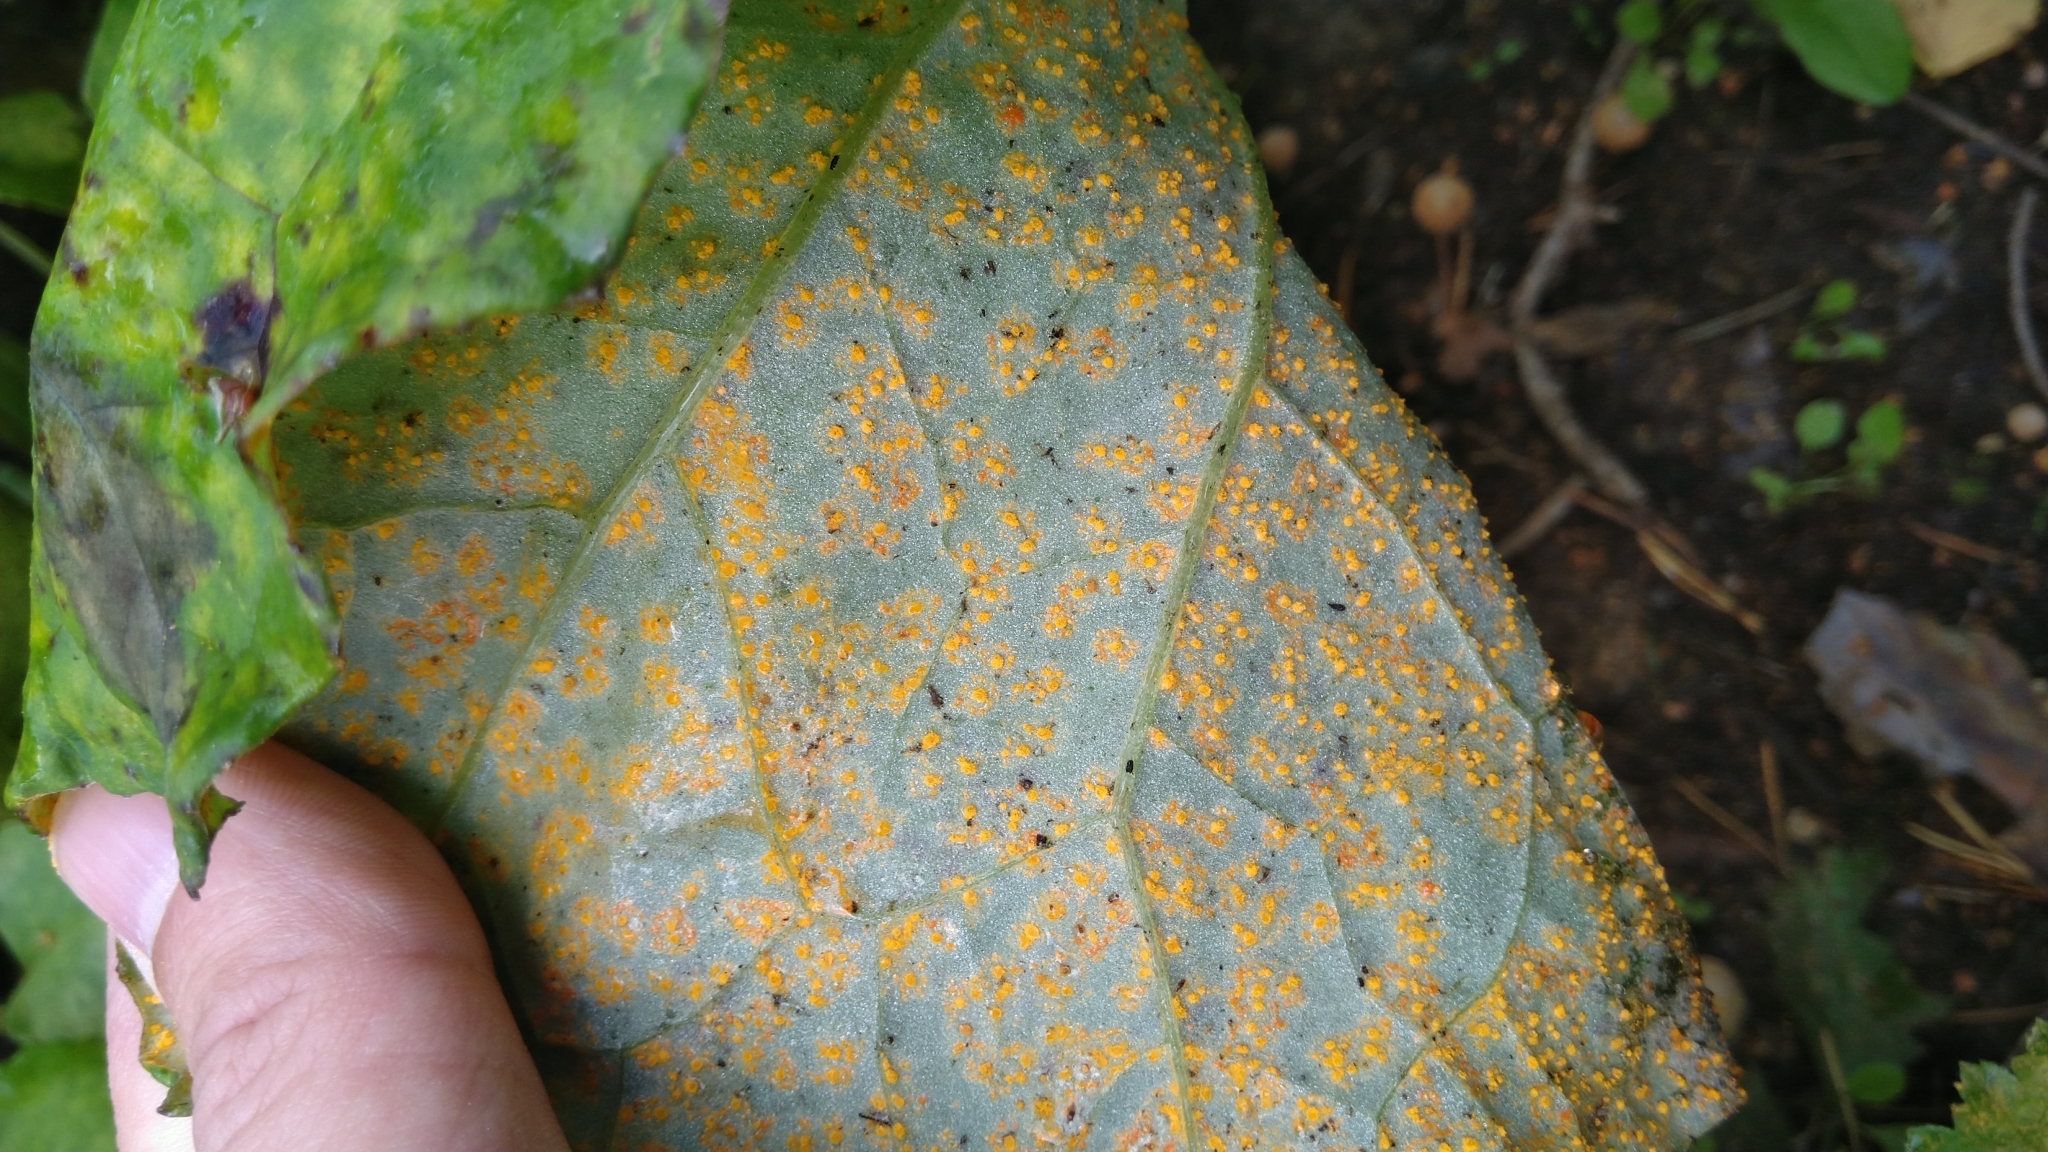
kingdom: Fungi
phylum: Basidiomycota
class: Pucciniomycetes
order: Pucciniales
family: Coleosporiaceae
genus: Coleosporium
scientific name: Coleosporium tussilaginis
